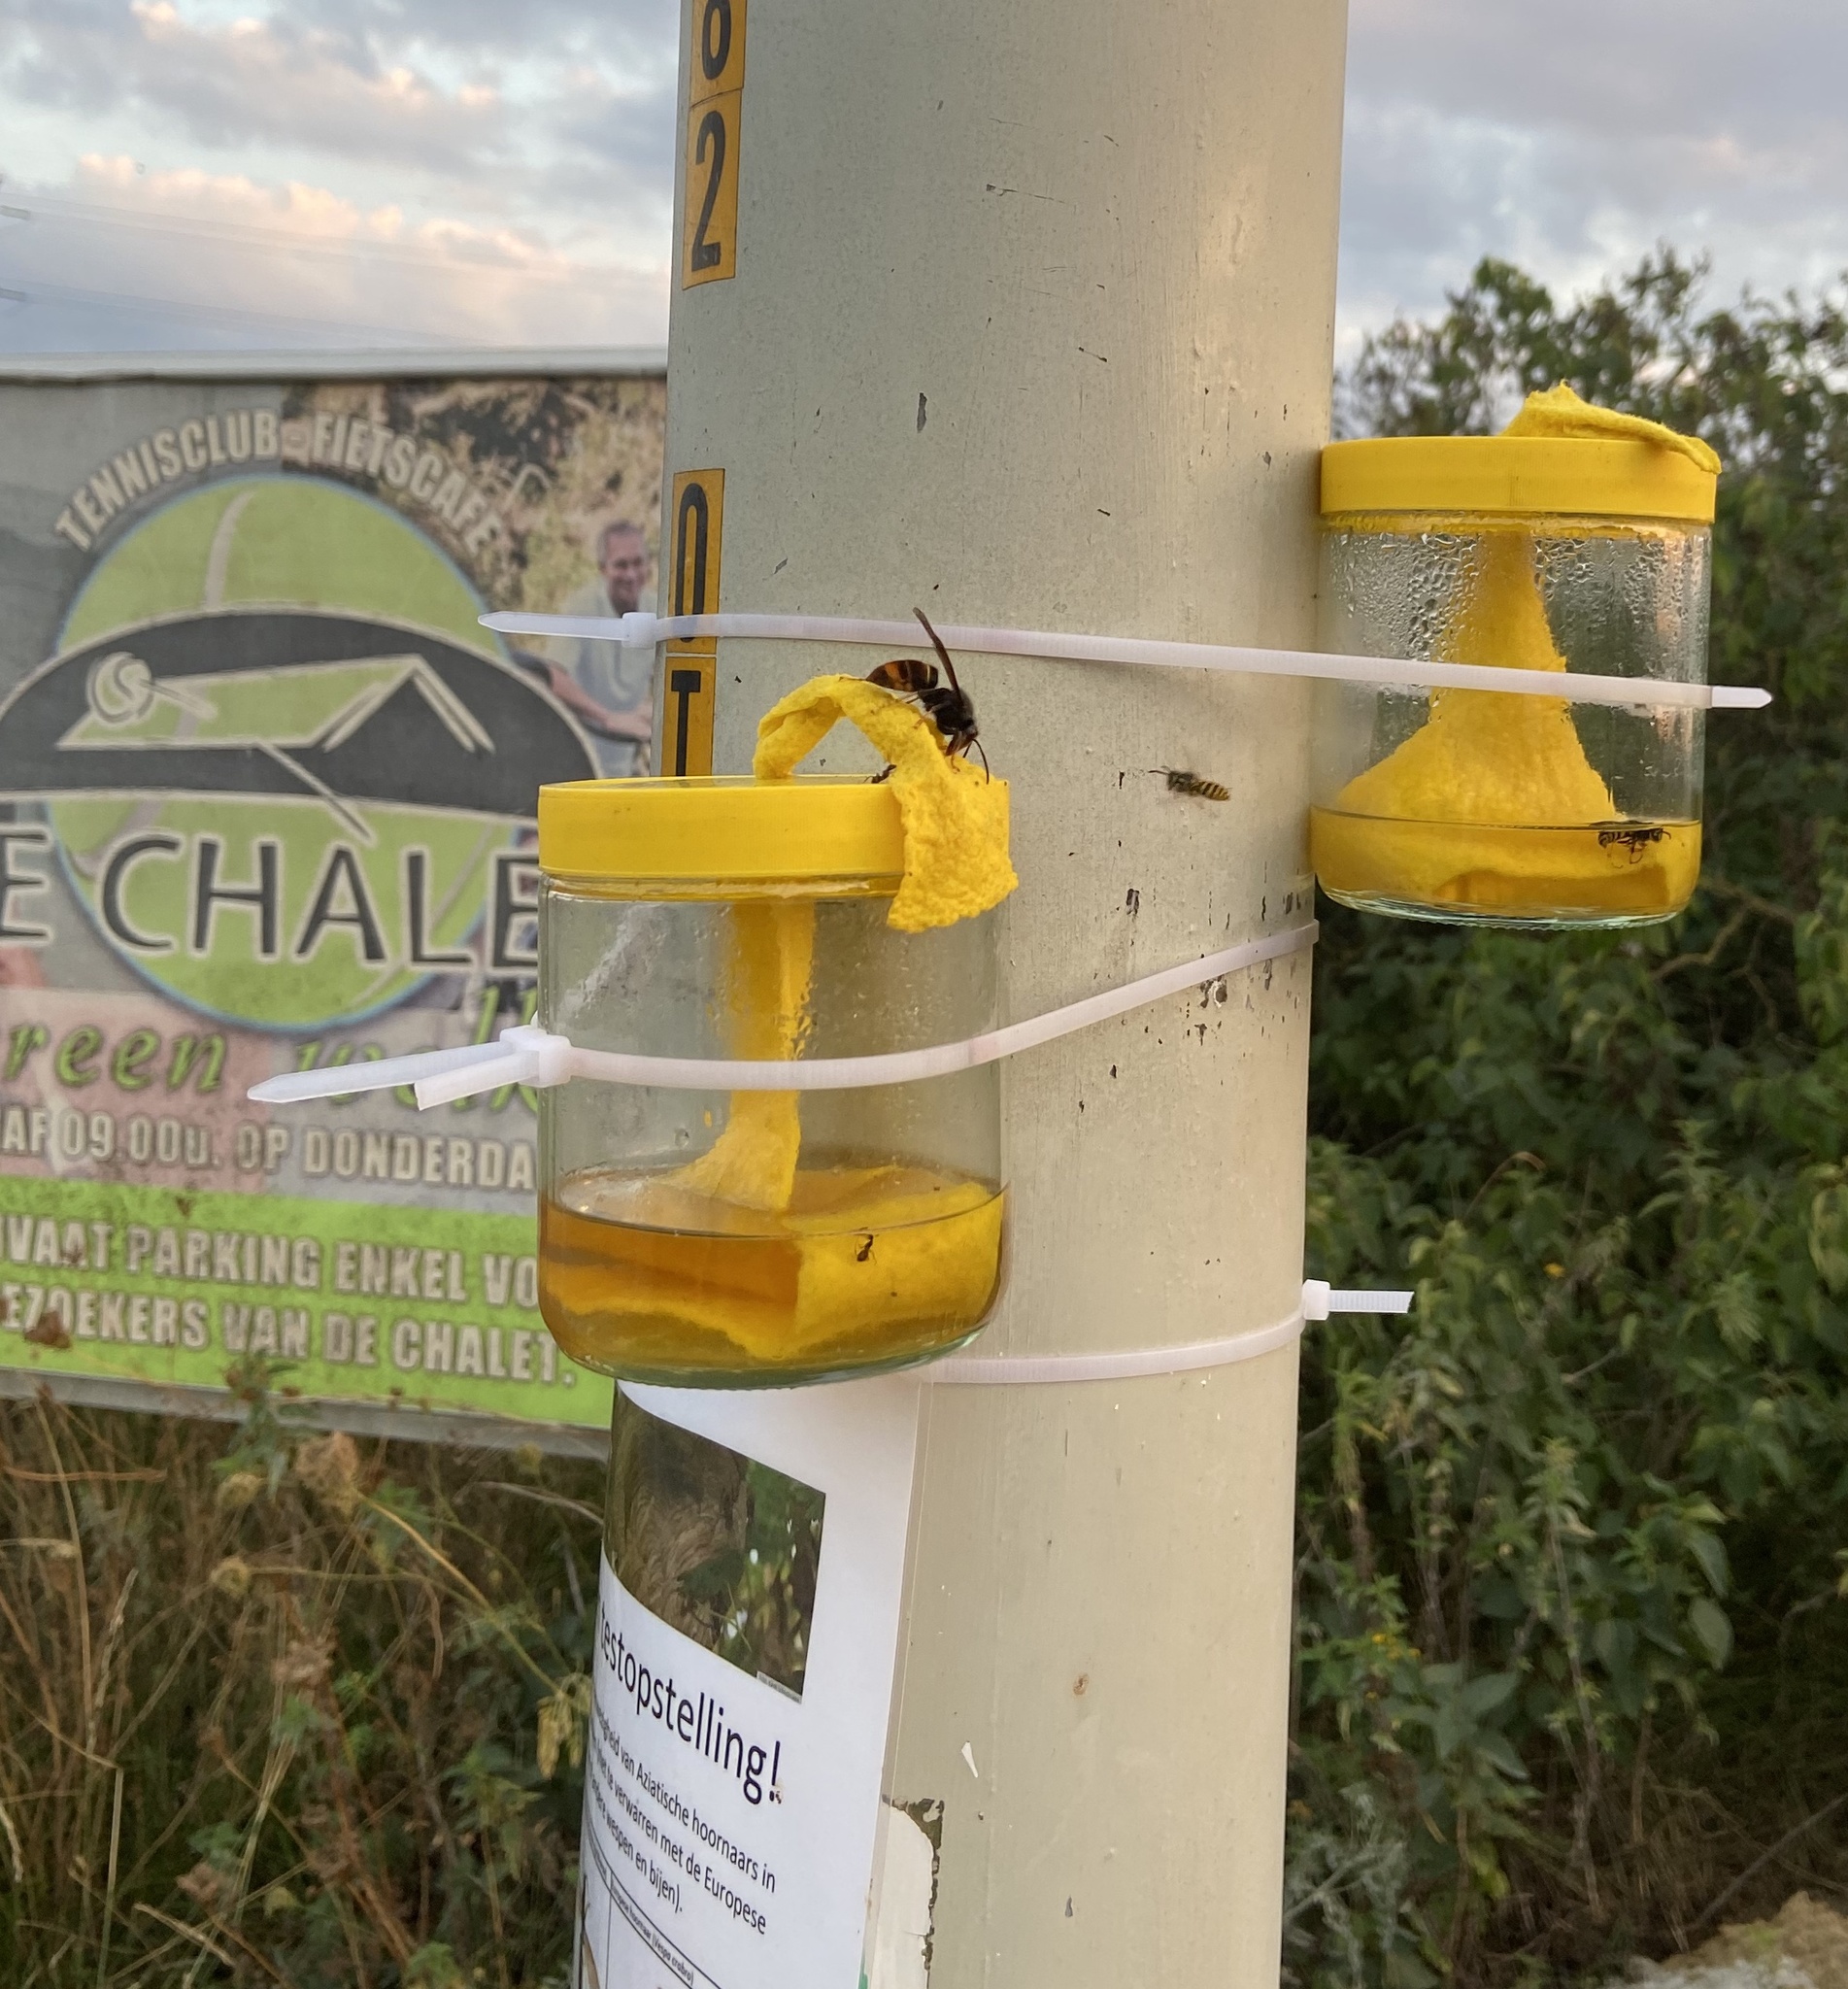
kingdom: Animalia
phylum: Arthropoda
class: Insecta
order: Hymenoptera
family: Vespidae
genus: Vespa
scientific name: Vespa velutina
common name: Asian hornet
